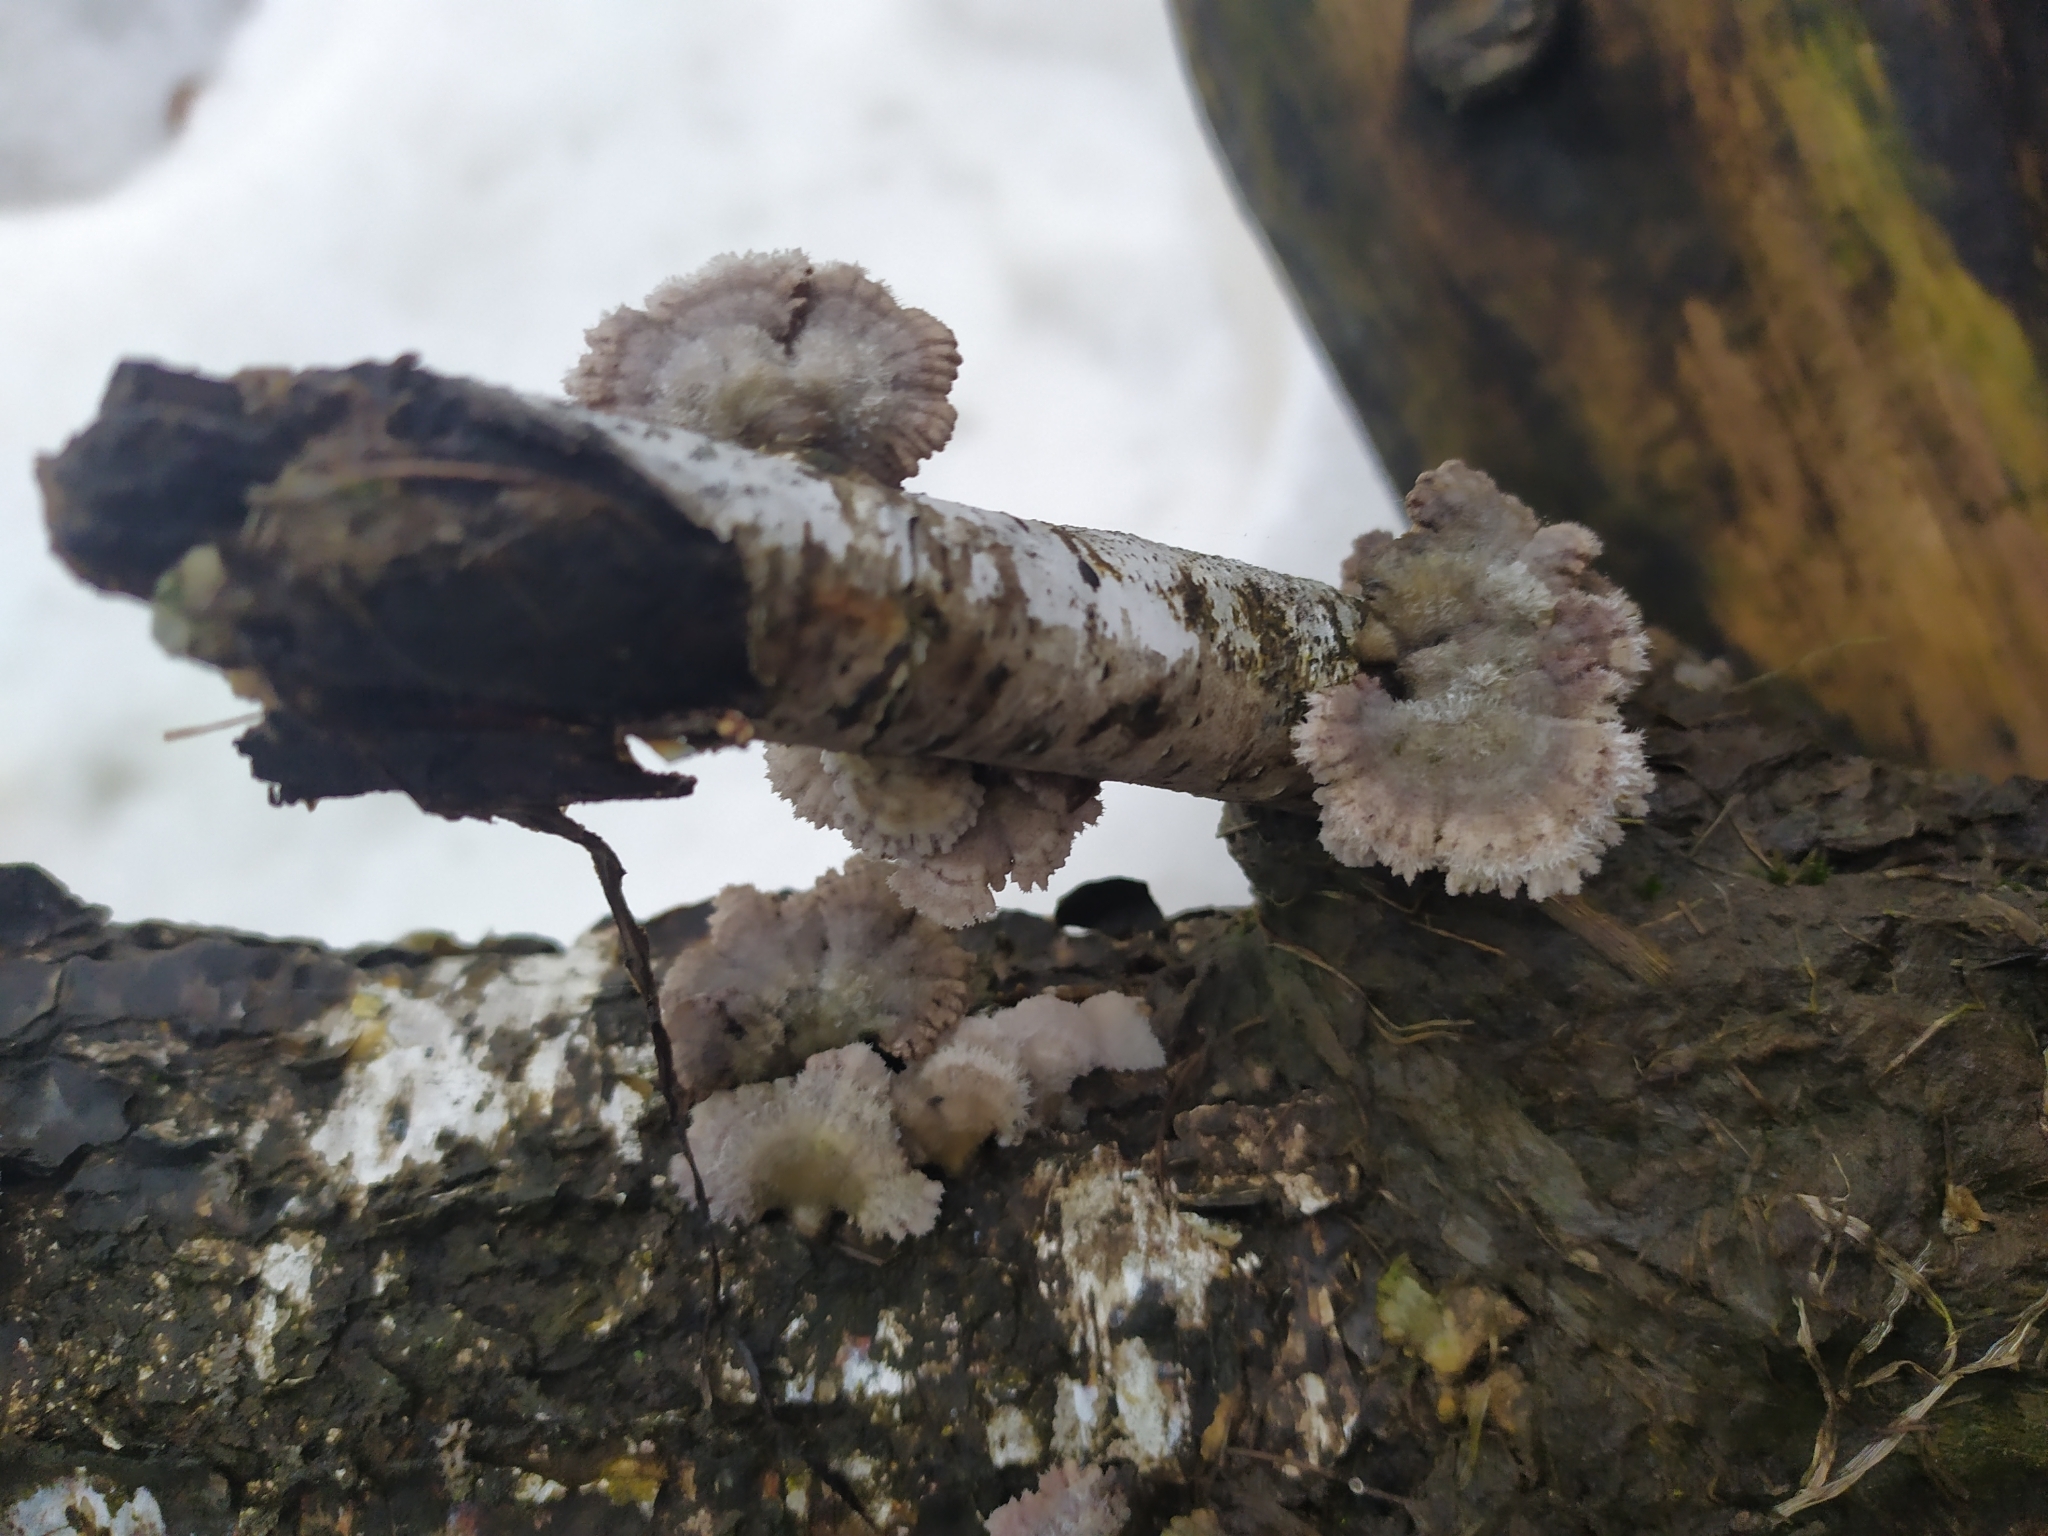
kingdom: Fungi
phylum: Basidiomycota
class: Agaricomycetes
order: Agaricales
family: Schizophyllaceae
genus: Schizophyllum
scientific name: Schizophyllum commune
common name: Common porecrust
